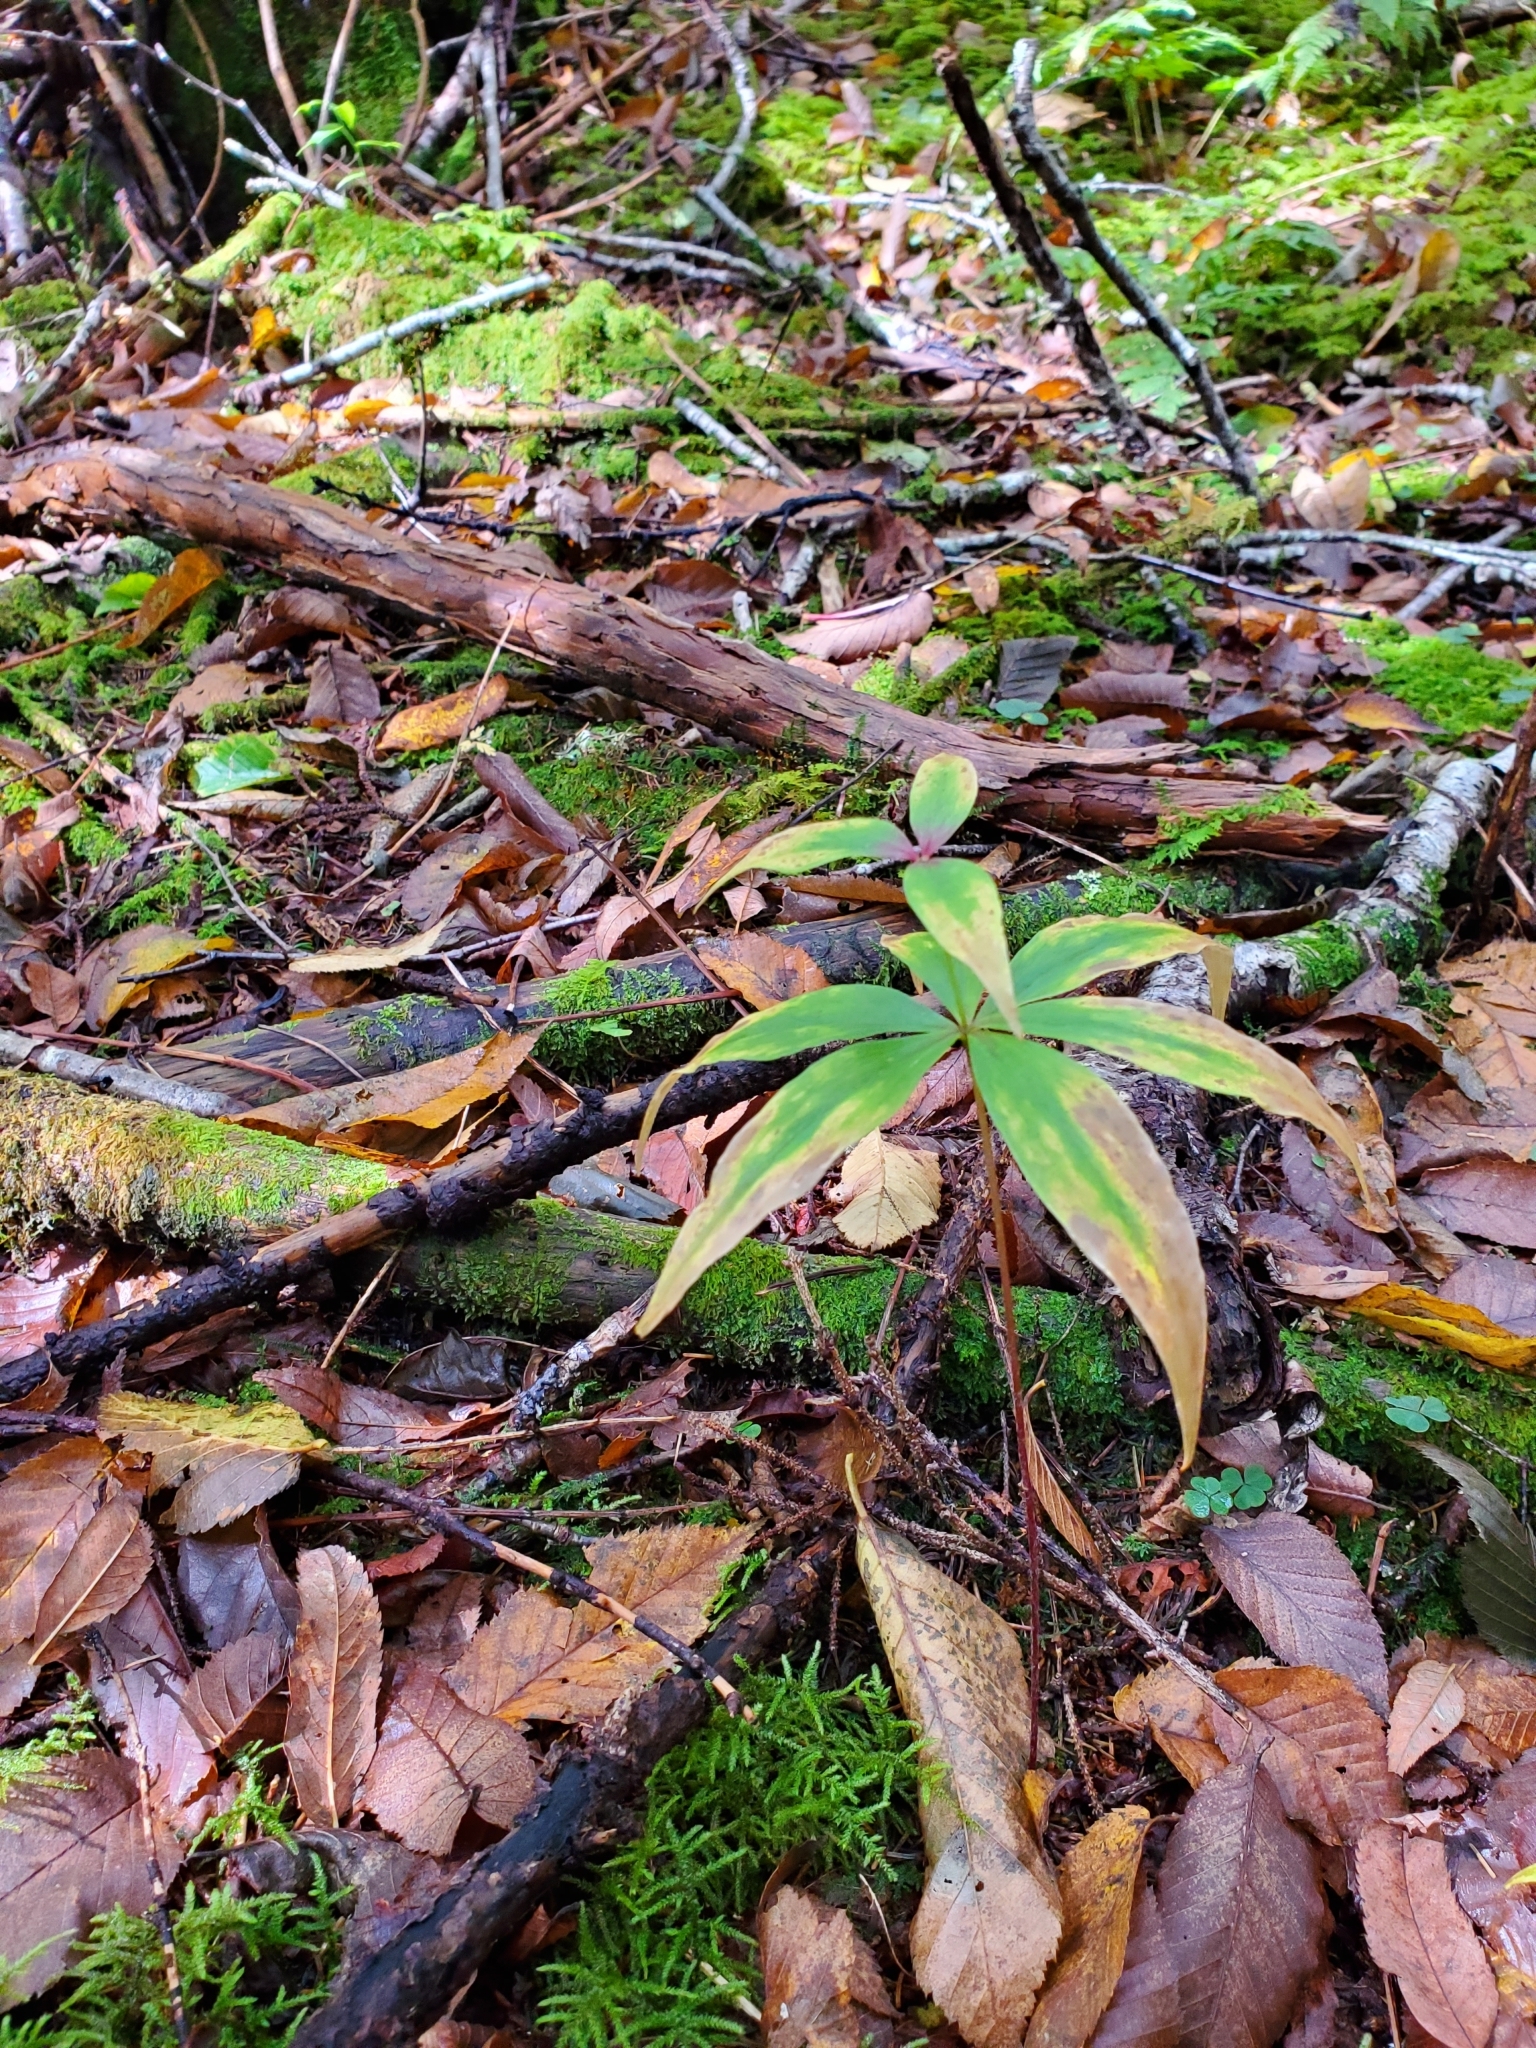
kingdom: Plantae
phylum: Tracheophyta
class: Liliopsida
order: Liliales
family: Liliaceae
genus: Medeola
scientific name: Medeola virginiana
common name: Indian cucumber-root
